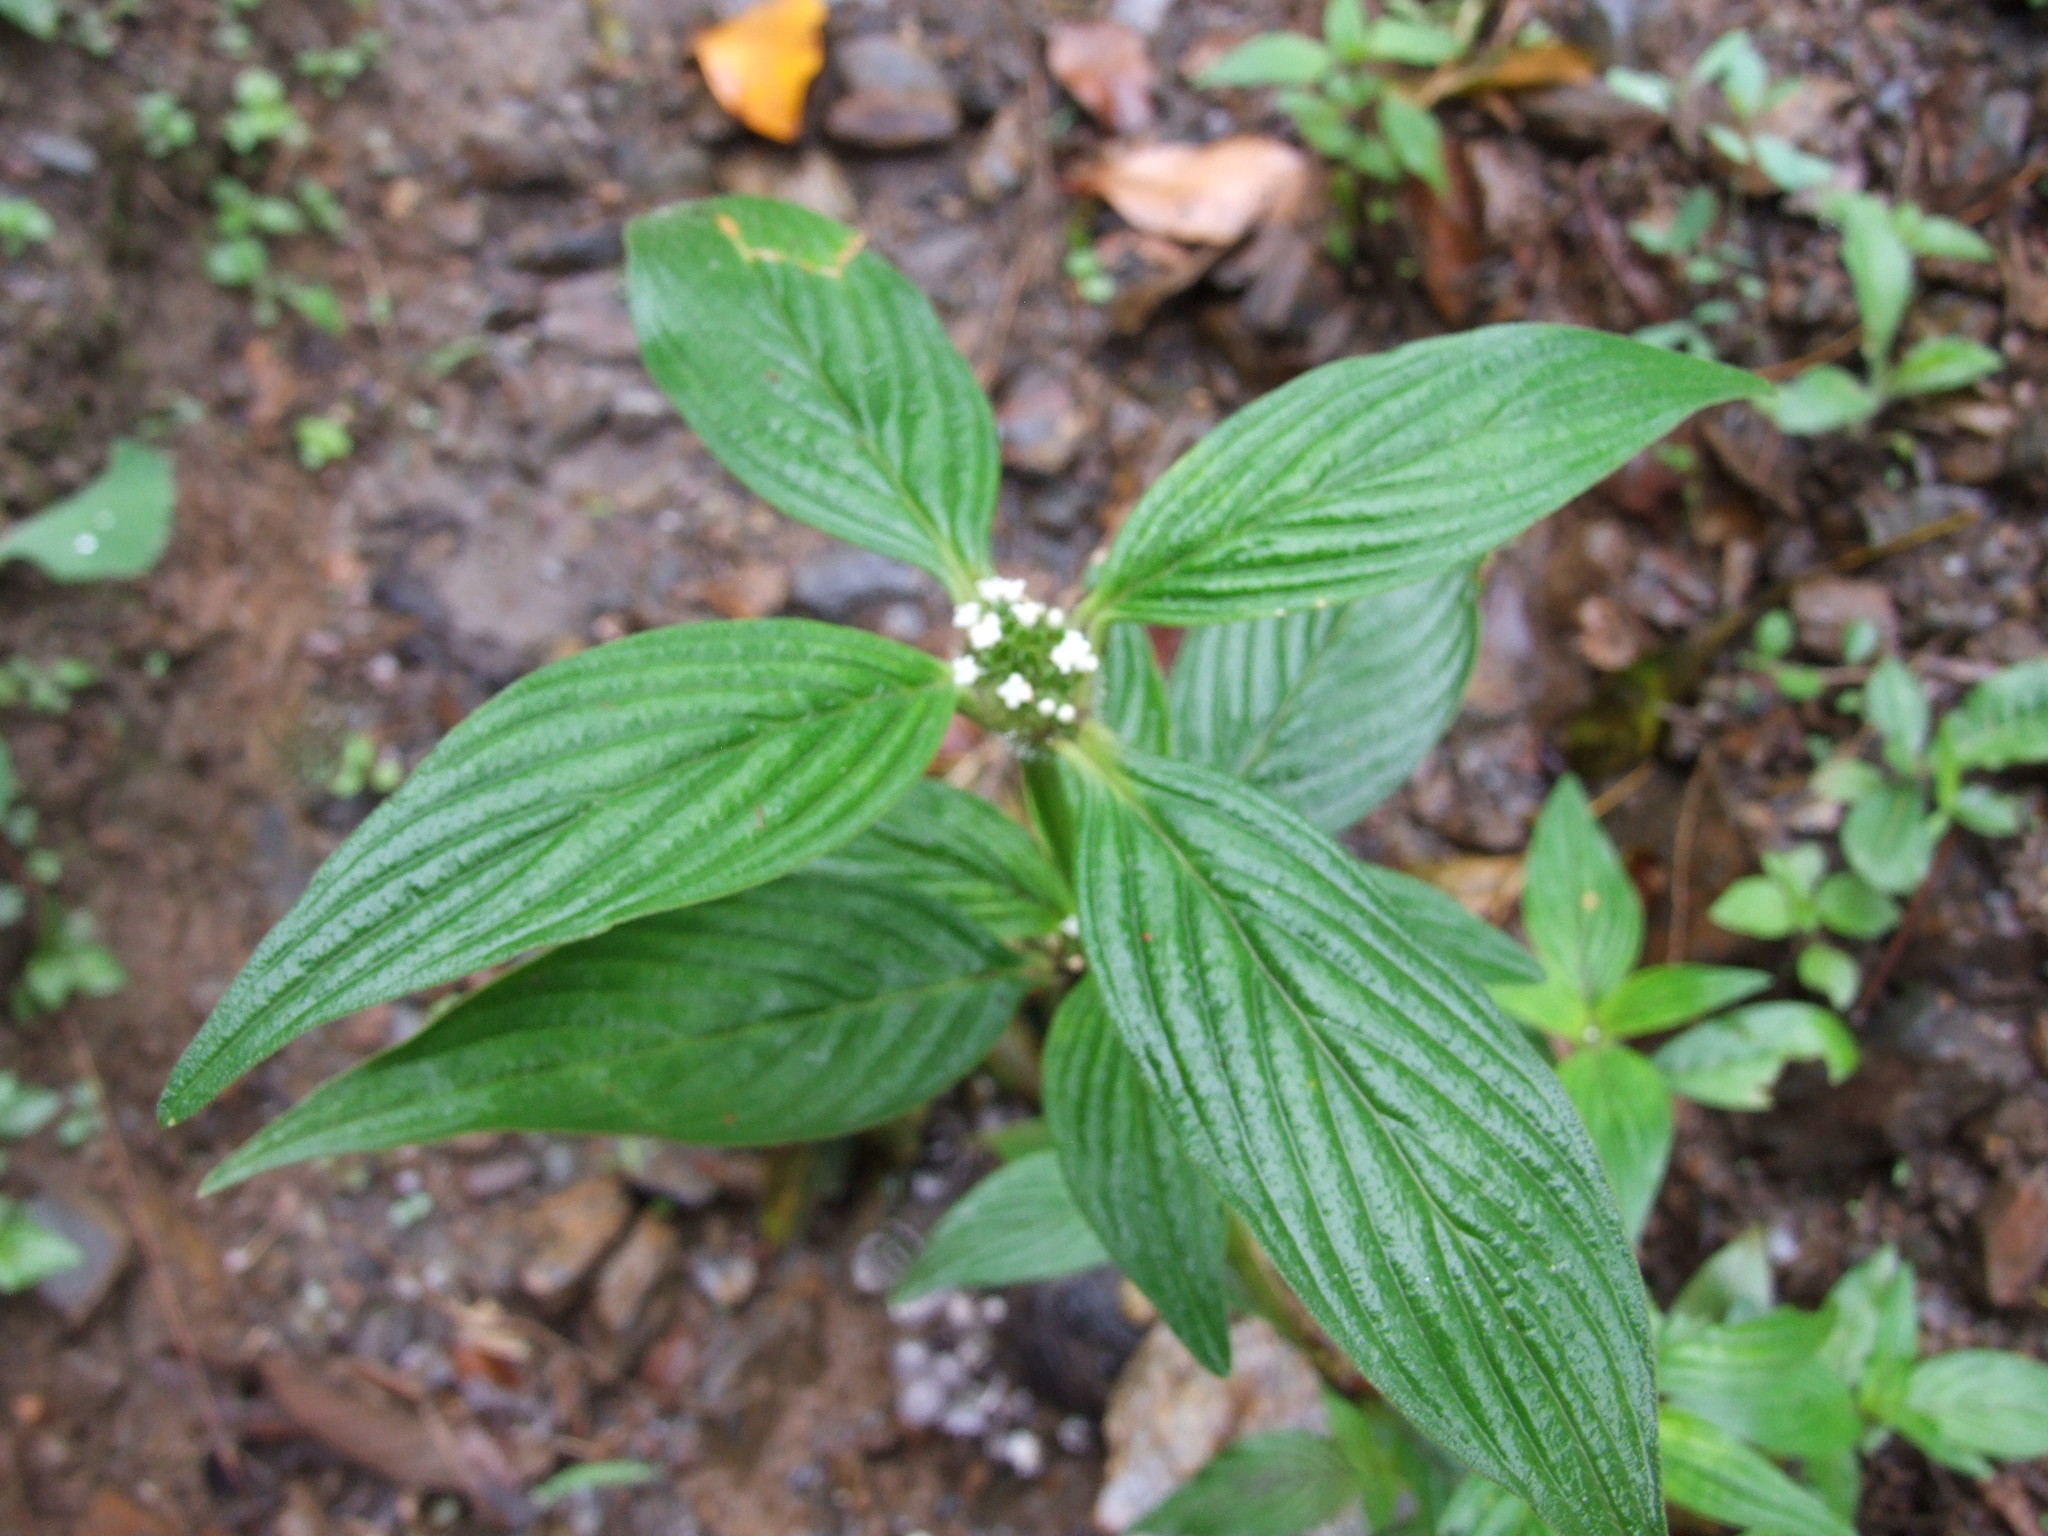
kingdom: Plantae
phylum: Tracheophyta
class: Magnoliopsida
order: Gentianales
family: Rubiaceae
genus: Spermacoce
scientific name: Spermacoce brownii
